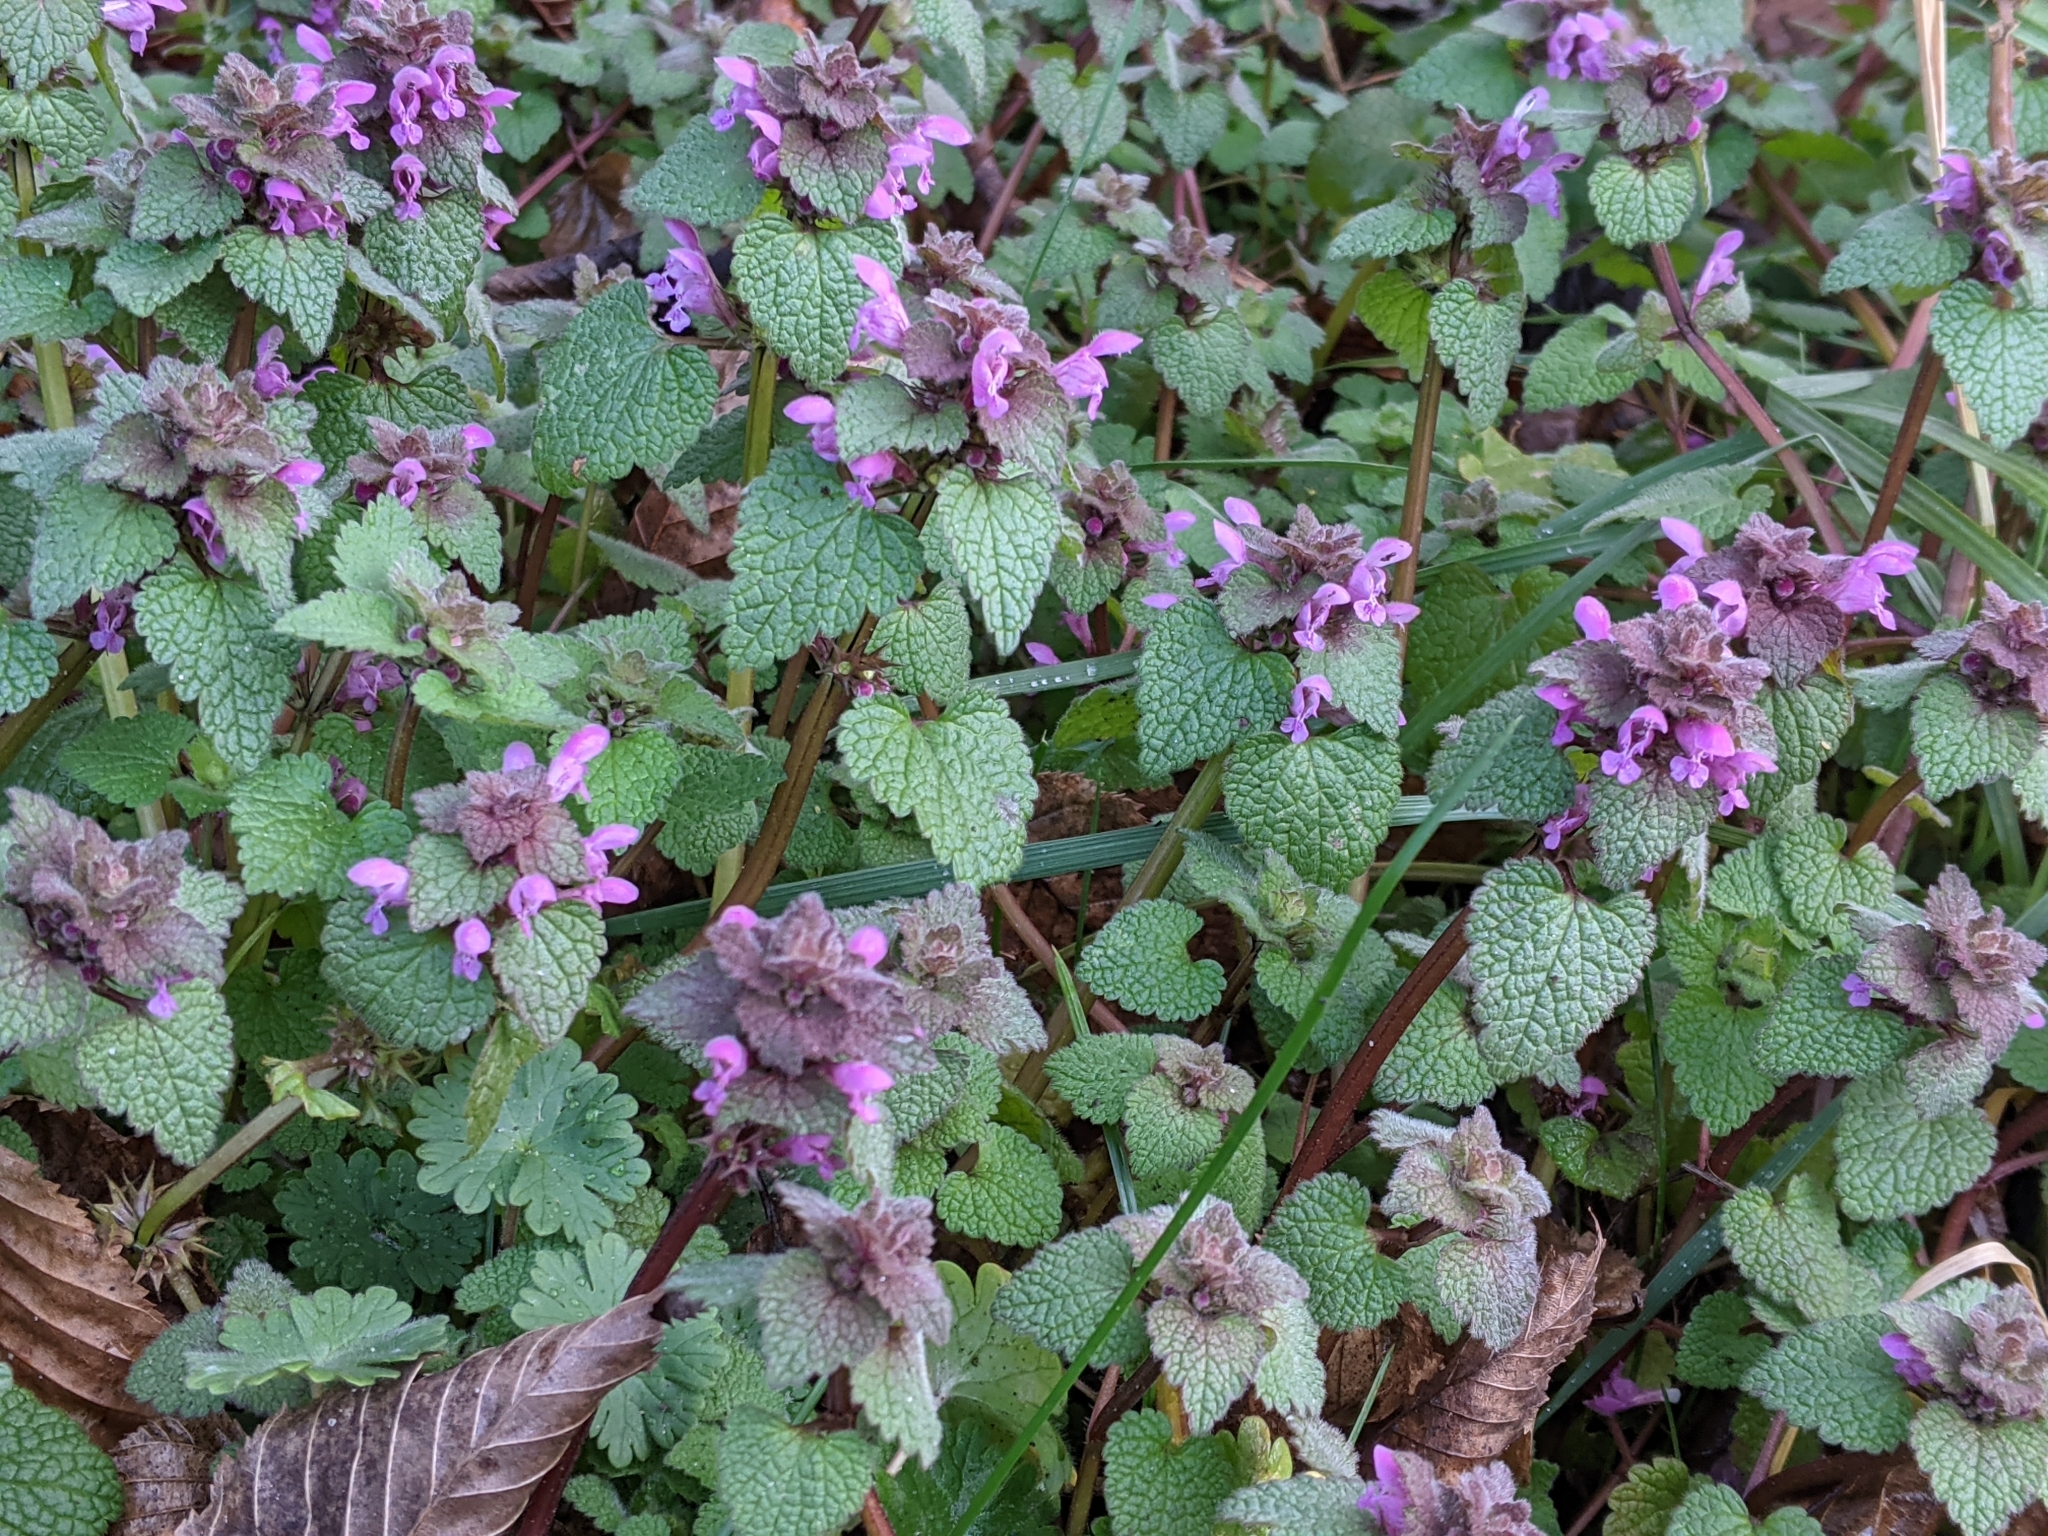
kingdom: Plantae
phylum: Tracheophyta
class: Magnoliopsida
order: Lamiales
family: Lamiaceae
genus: Lamium
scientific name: Lamium purpureum
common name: Red dead-nettle
